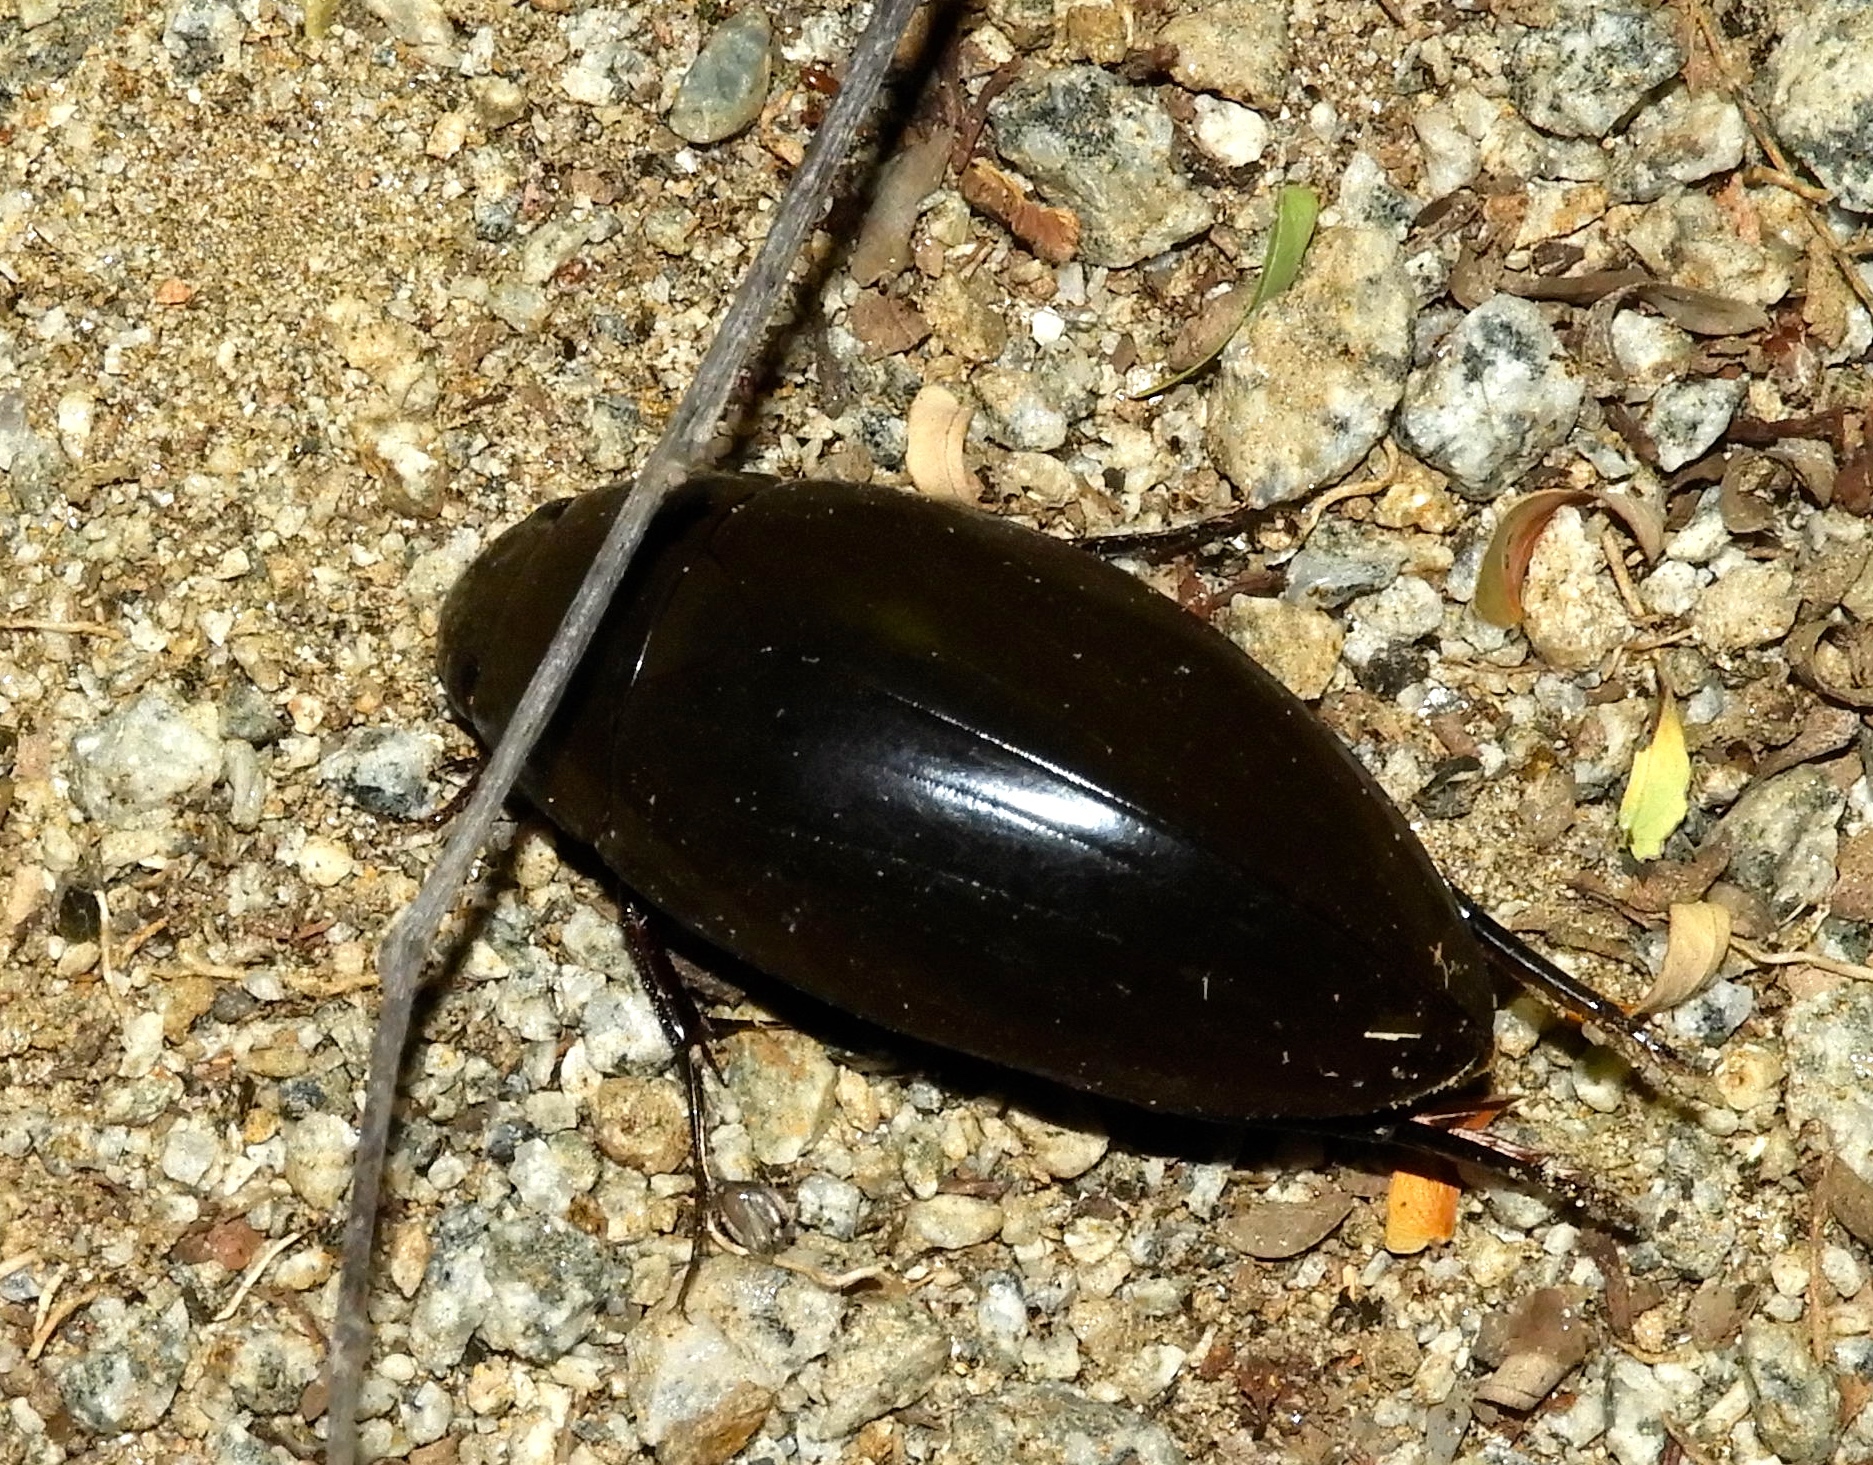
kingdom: Animalia
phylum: Arthropoda
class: Insecta
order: Coleoptera
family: Hydrophilidae
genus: Hydrophilus
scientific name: Hydrophilus
